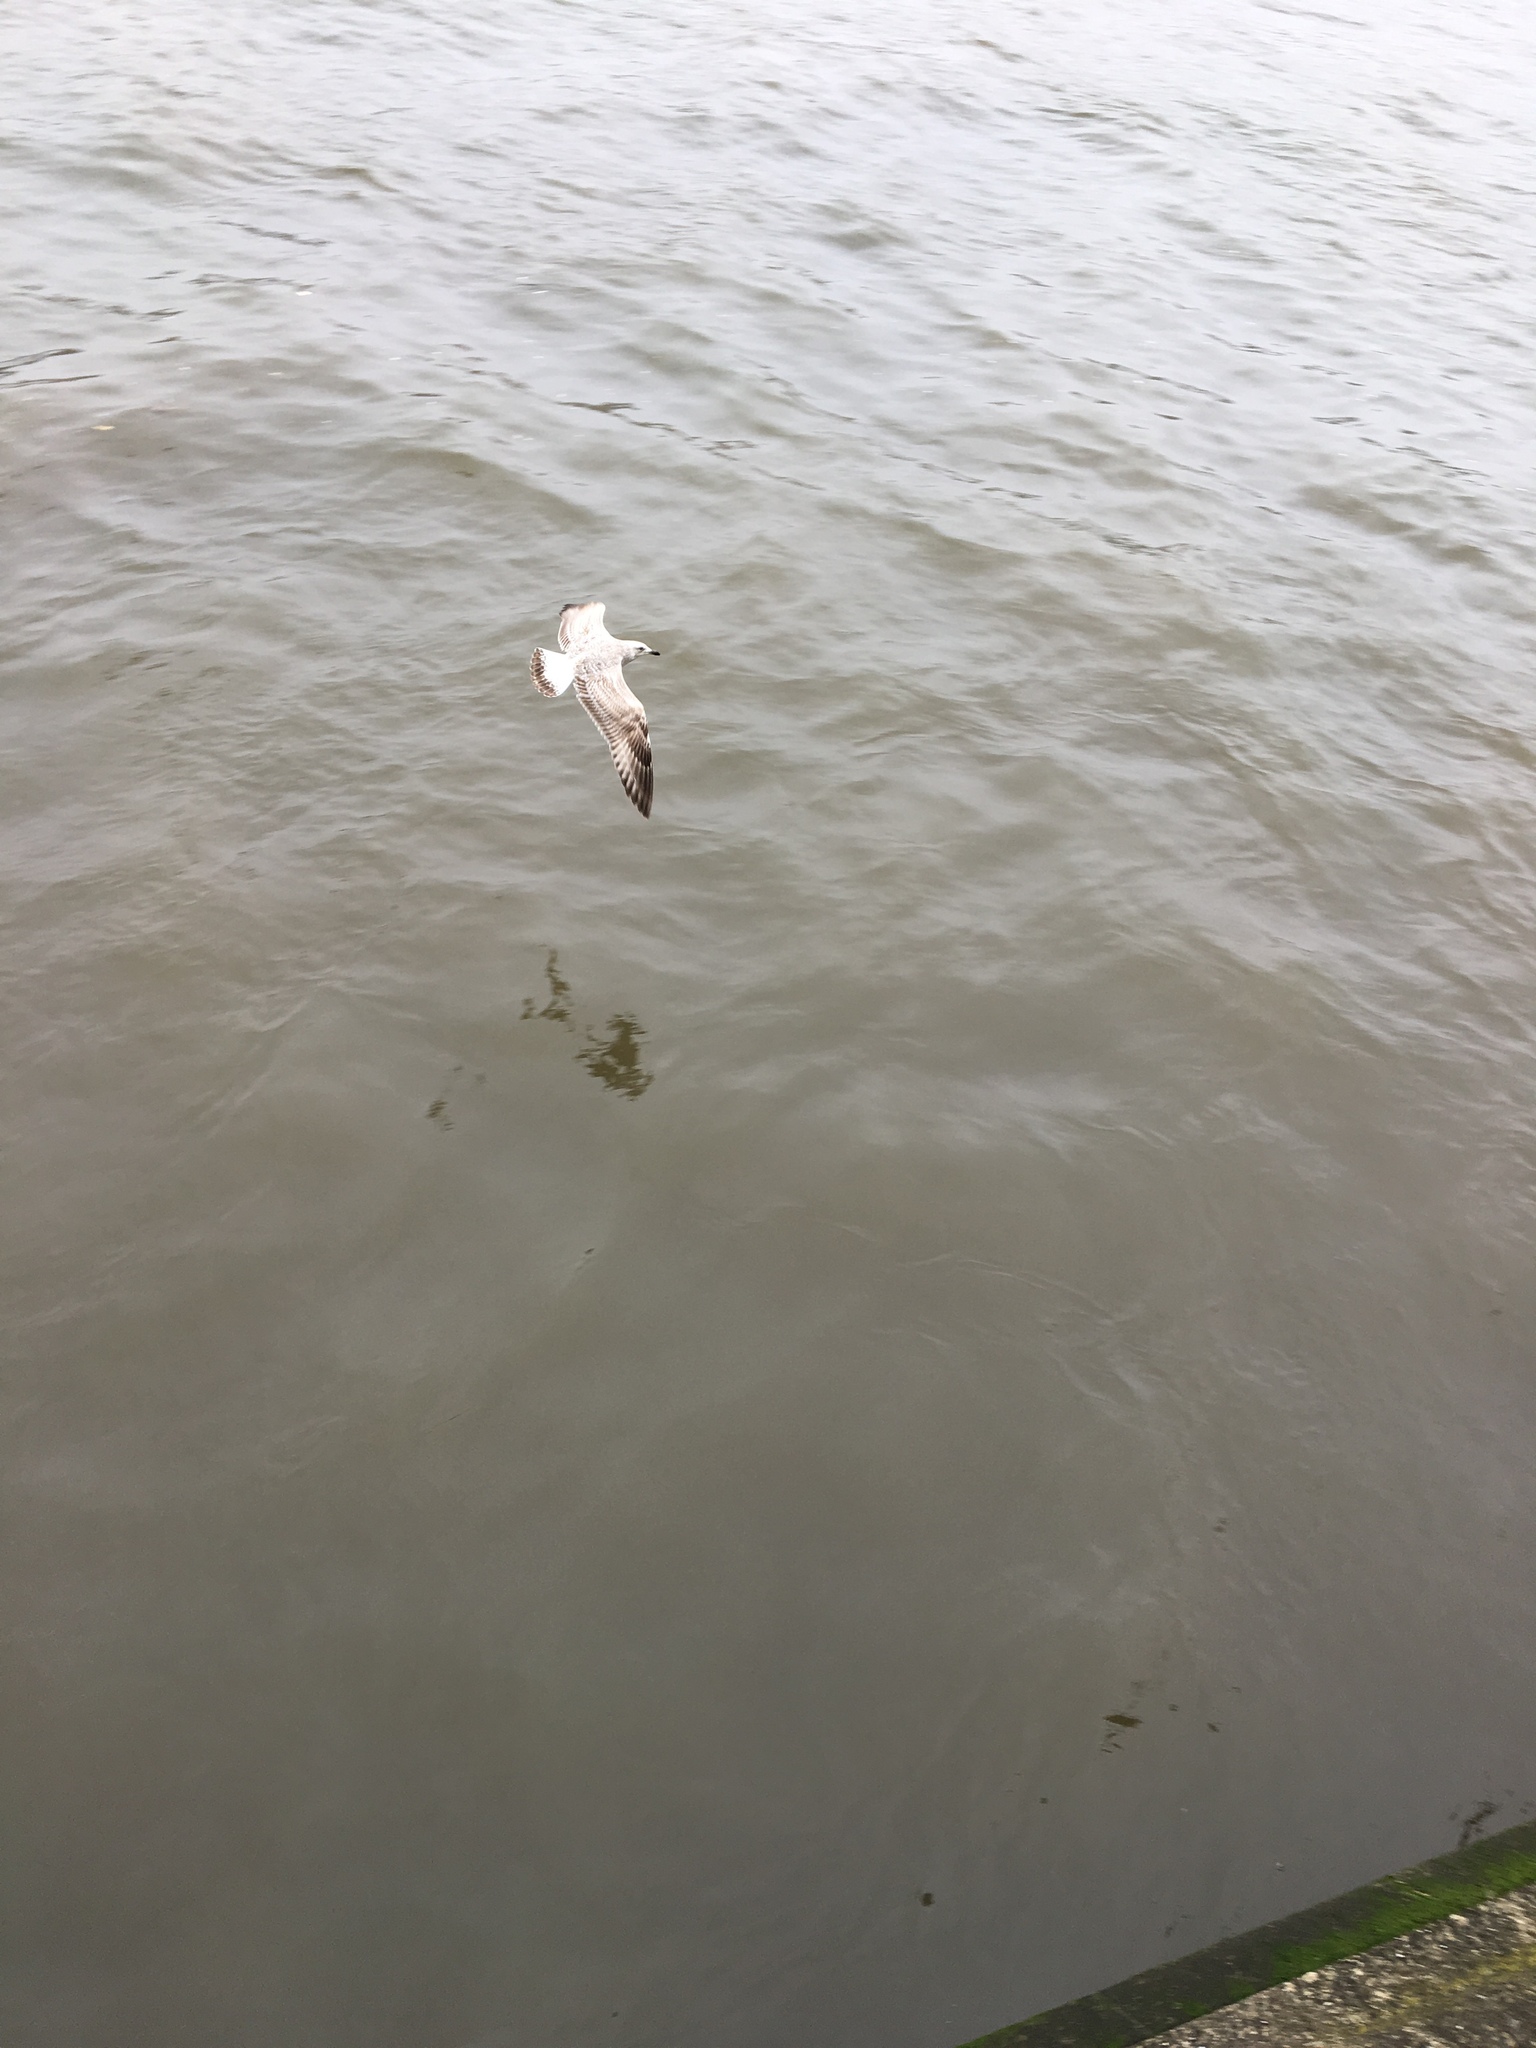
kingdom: Animalia
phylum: Chordata
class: Aves
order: Charadriiformes
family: Laridae
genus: Larus
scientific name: Larus argentatus
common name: Herring gull
